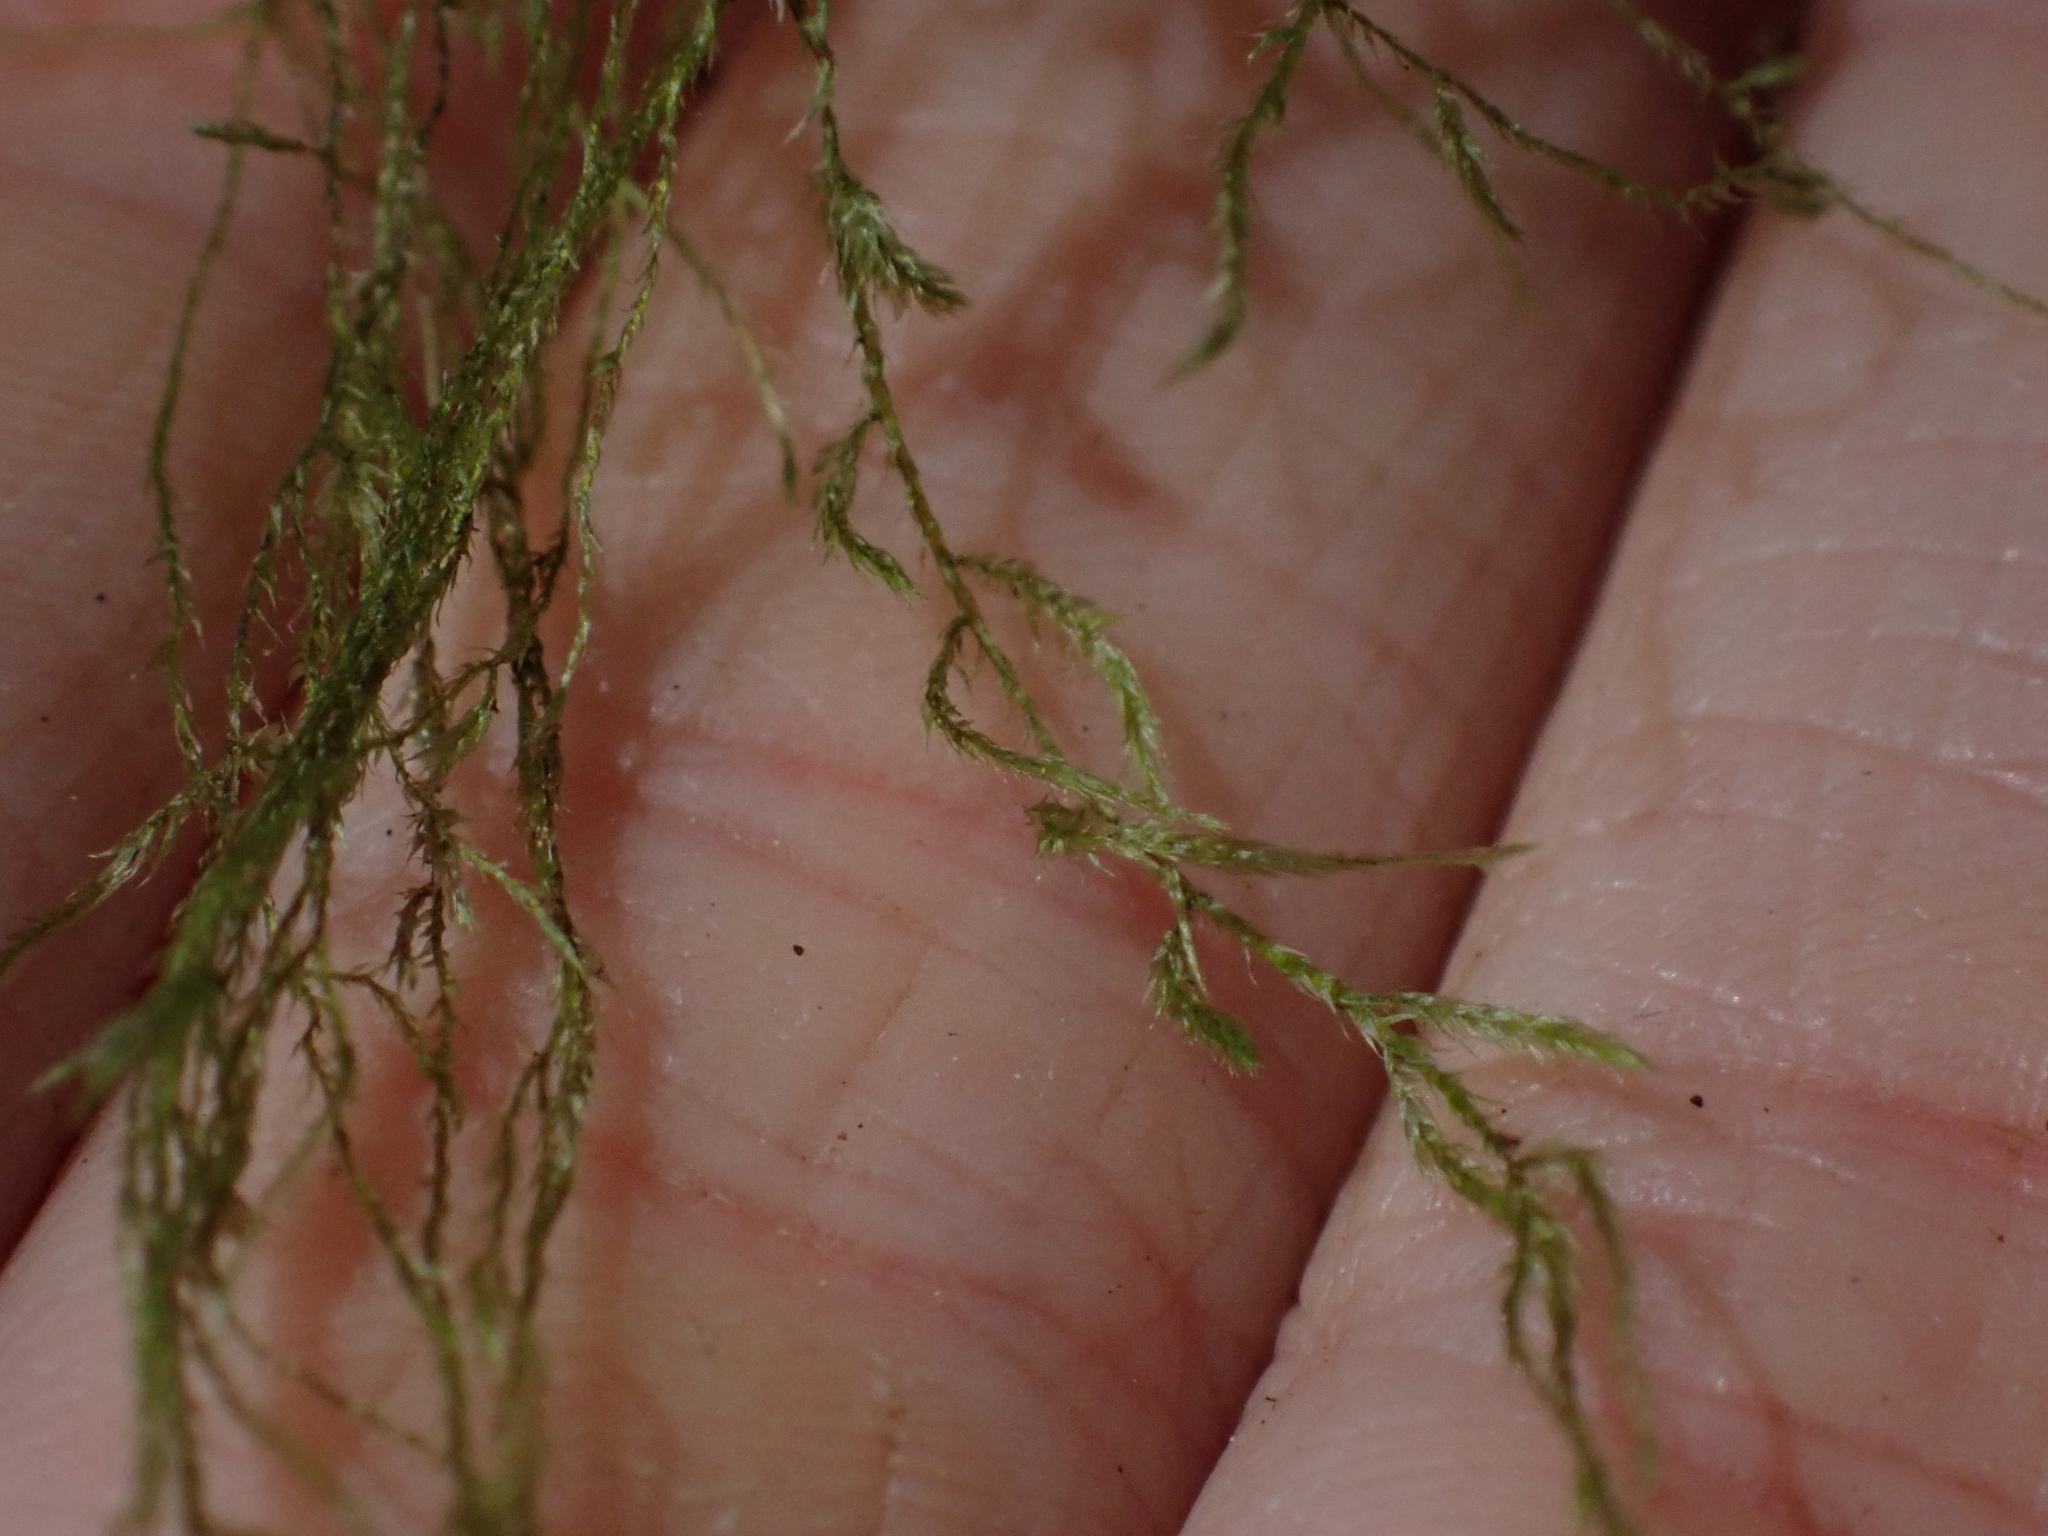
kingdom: Plantae
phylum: Bryophyta
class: Bryopsida
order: Hypnales
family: Lembophyllaceae
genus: Pseudisothecium
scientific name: Pseudisothecium stoloniferum
